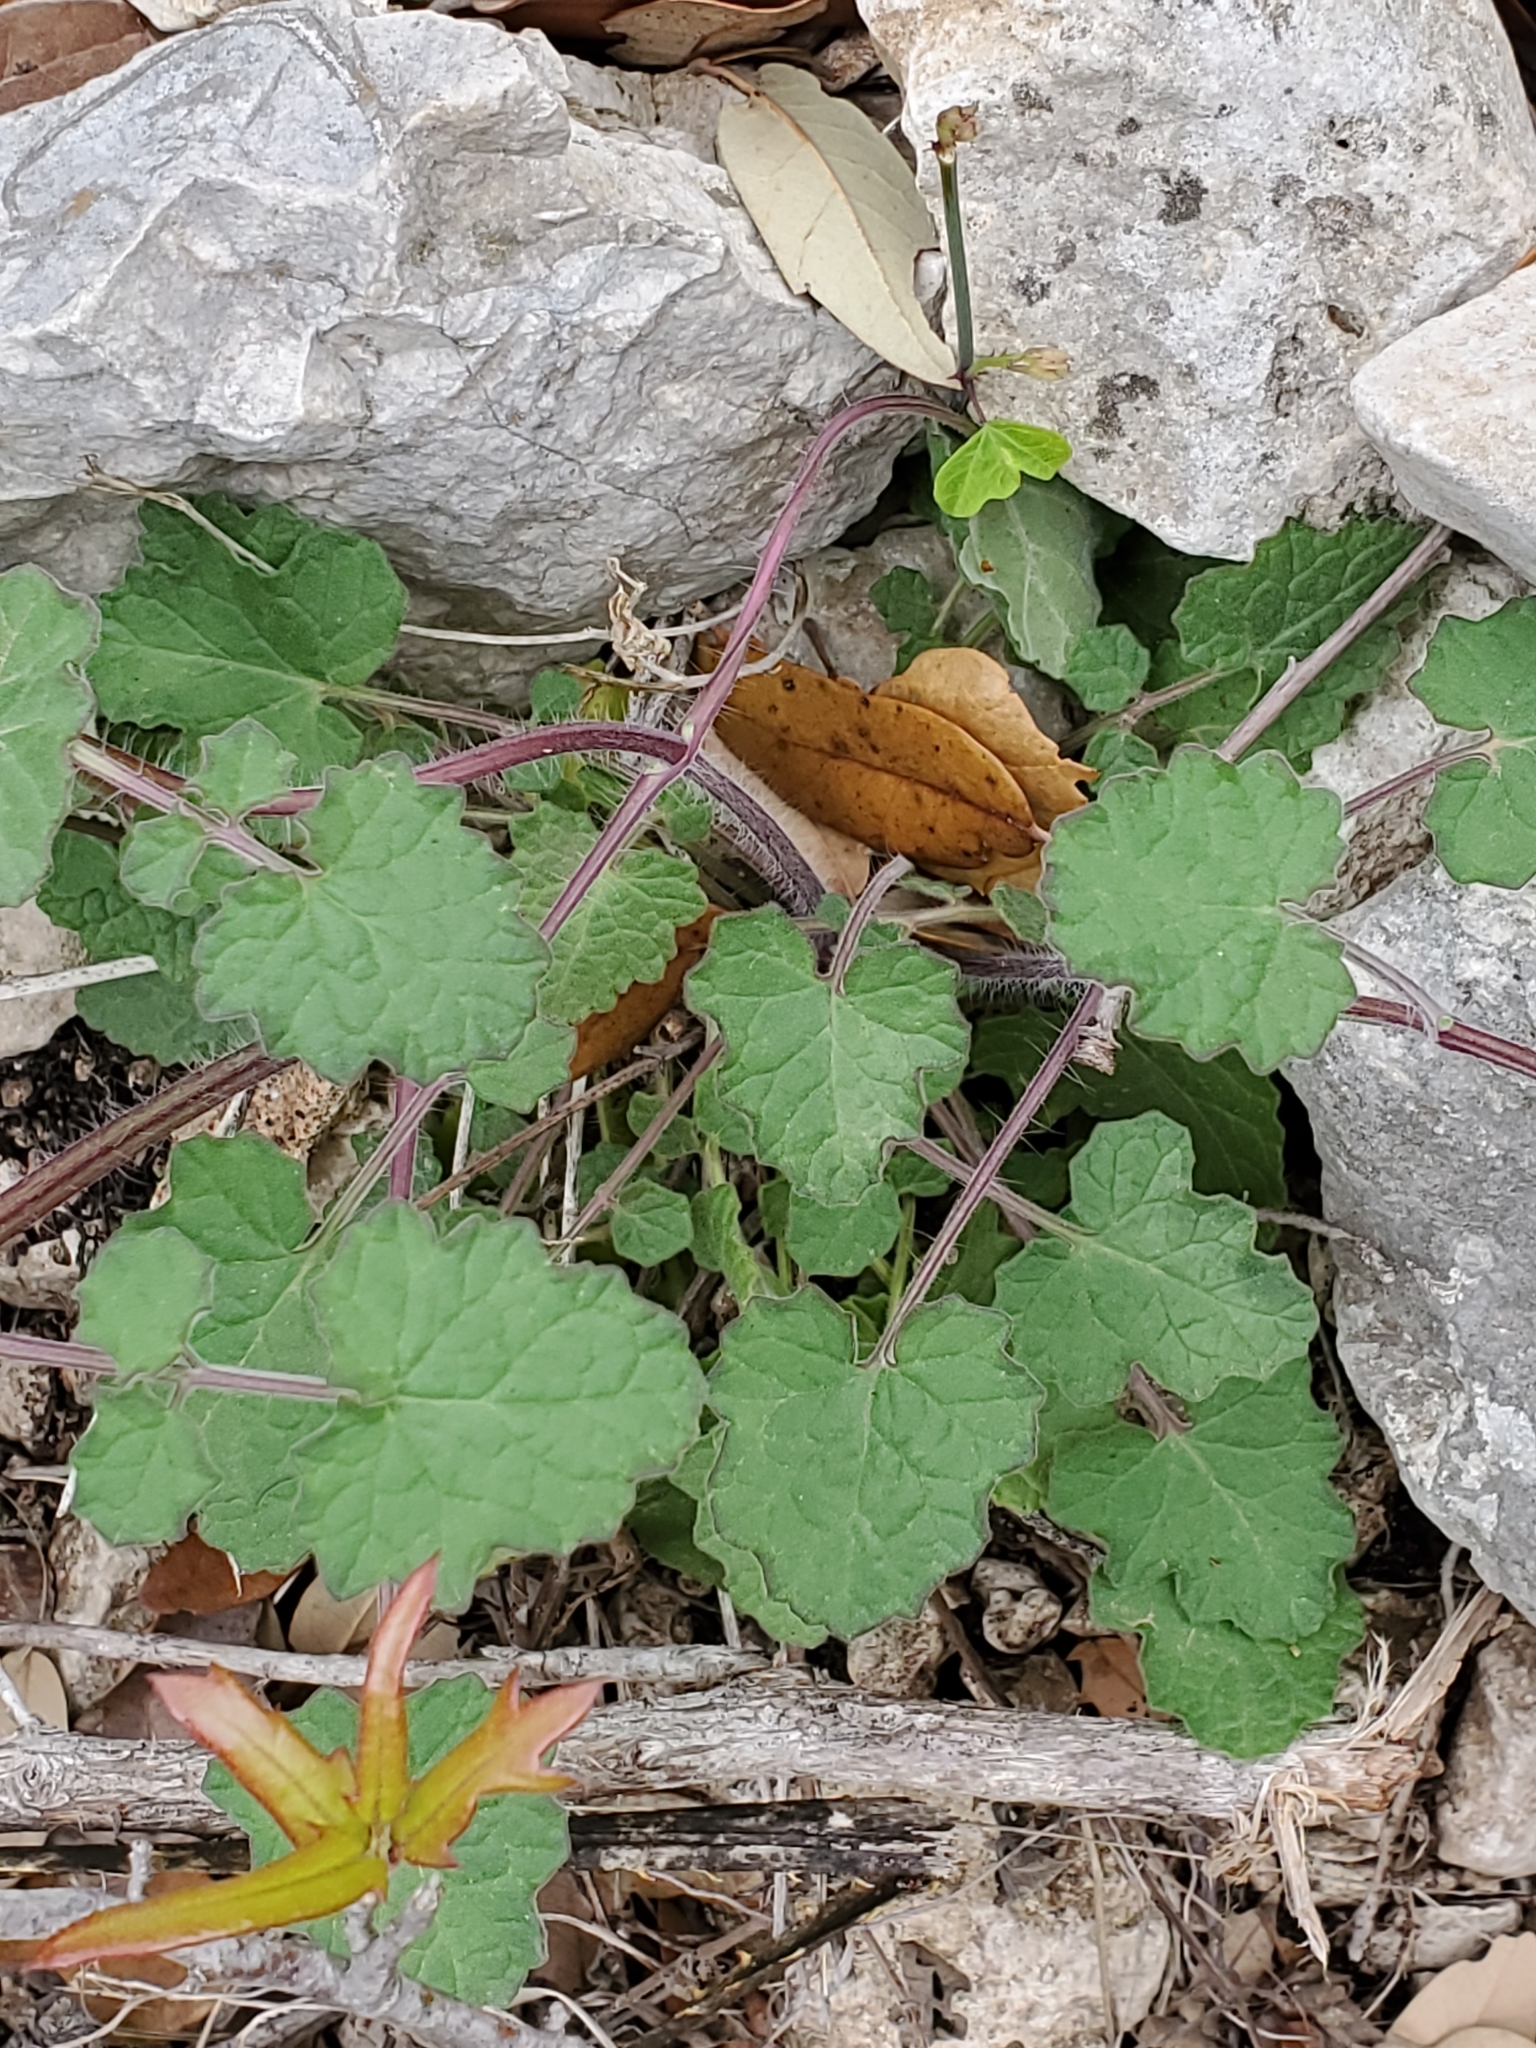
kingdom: Plantae
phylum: Tracheophyta
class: Magnoliopsida
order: Lamiales
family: Lamiaceae
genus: Salvia
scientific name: Salvia roemeriana
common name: Cedar sage
